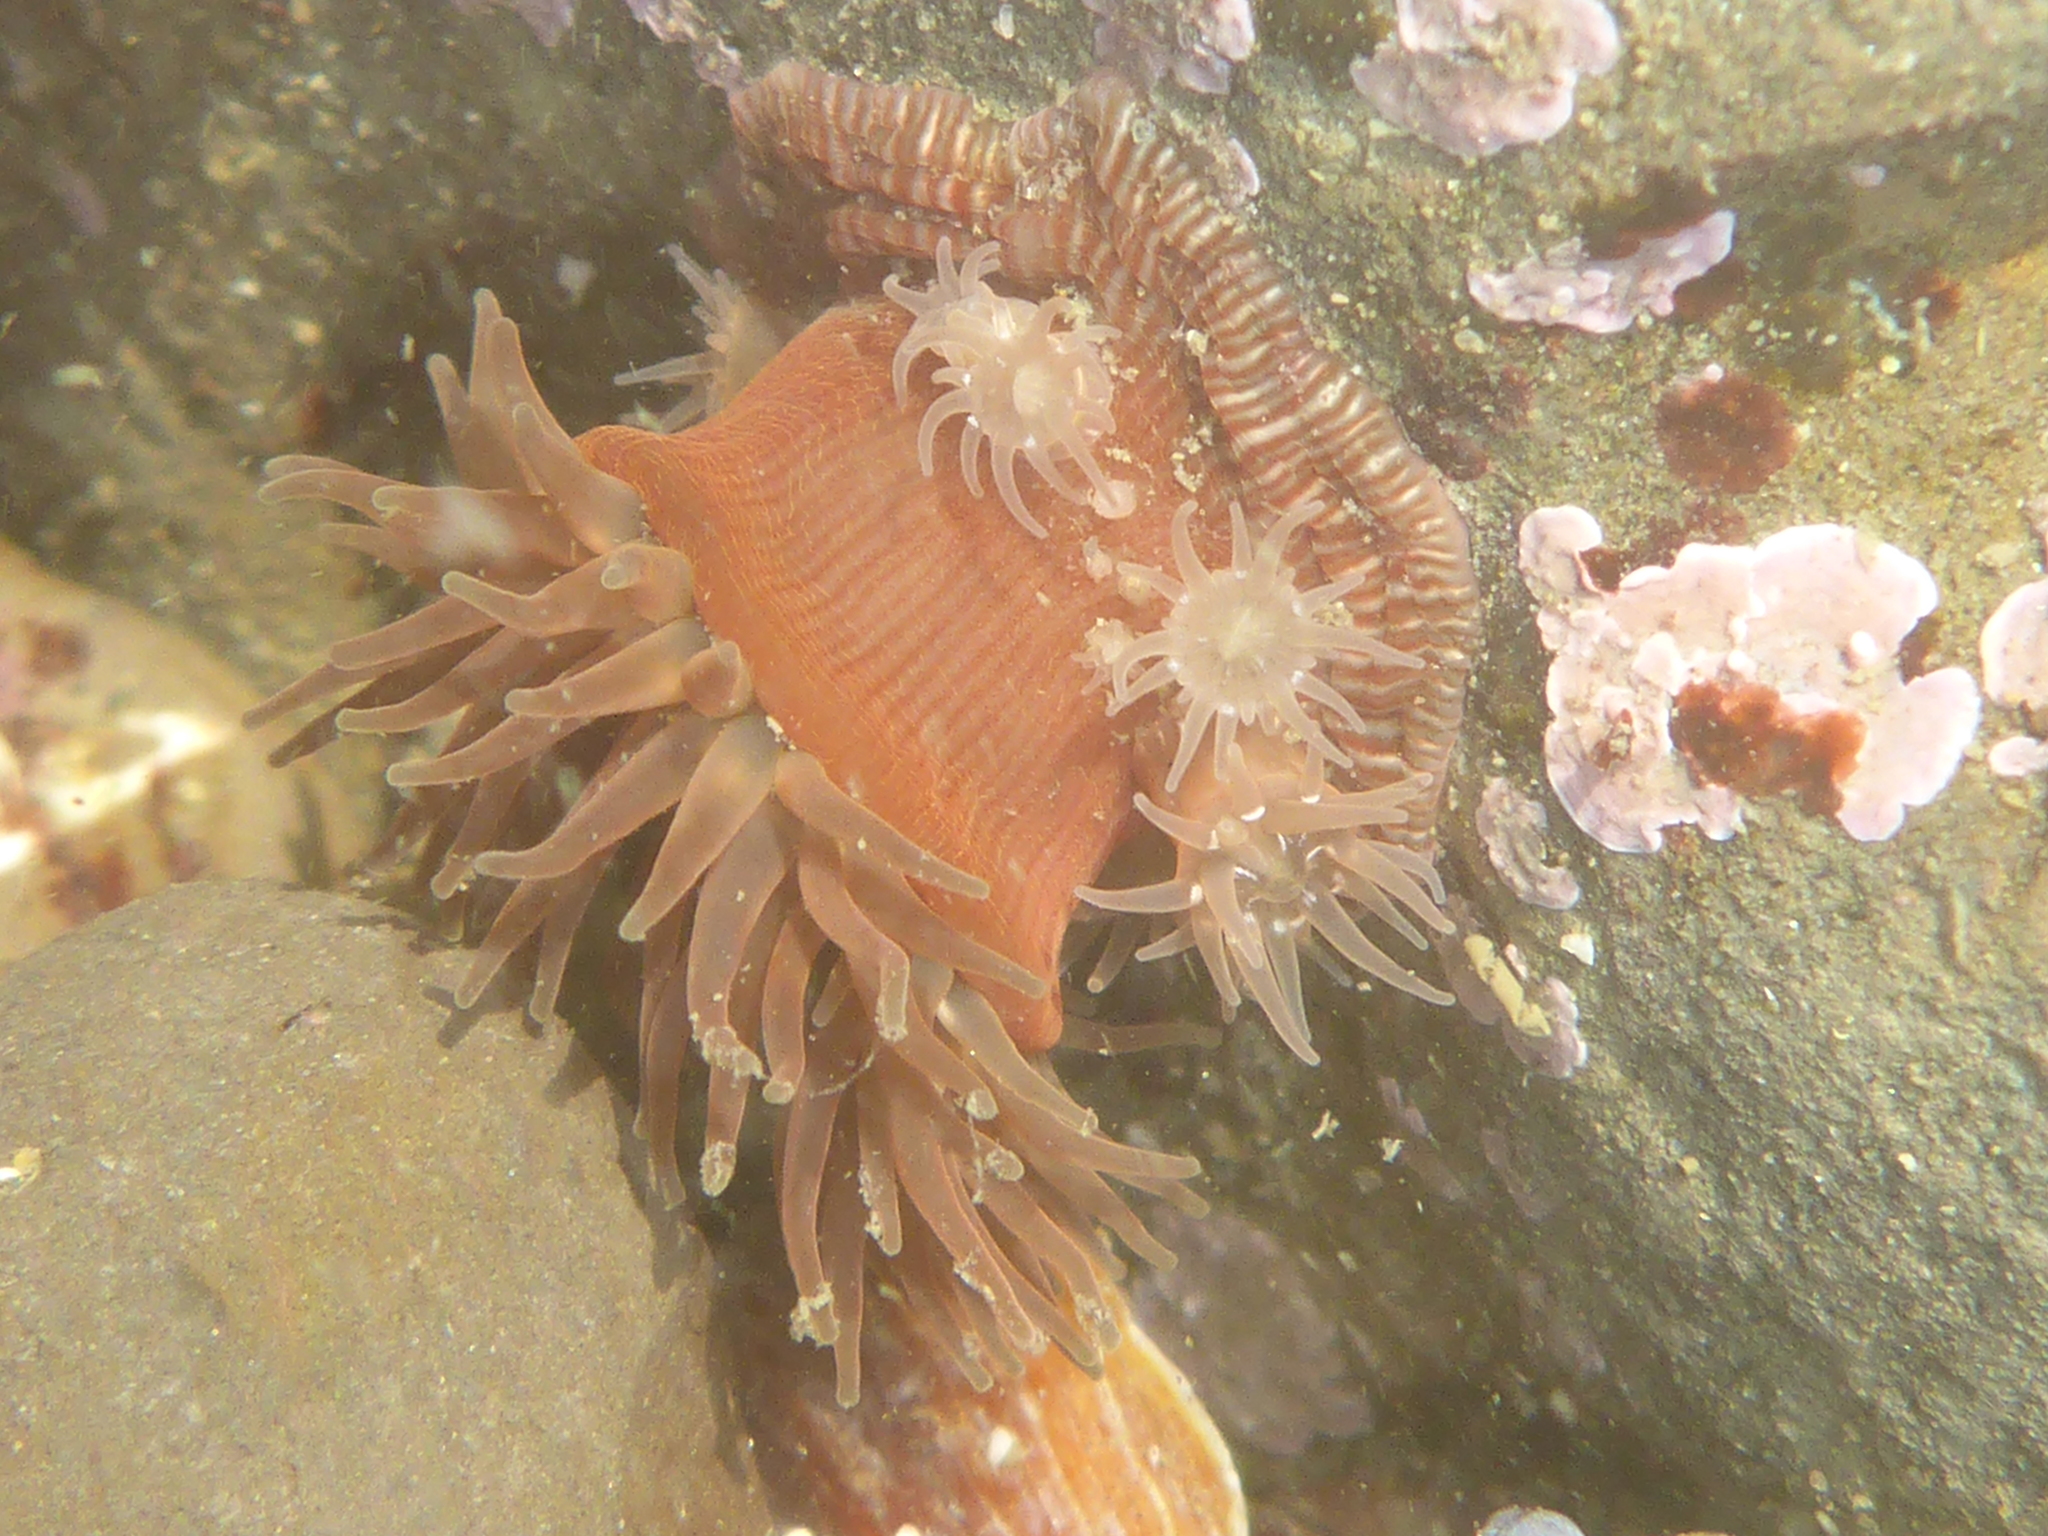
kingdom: Animalia
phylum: Cnidaria
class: Anthozoa
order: Actiniaria
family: Actiniidae
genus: Epiactis
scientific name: Epiactis prolifera
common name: Brooding anemone
